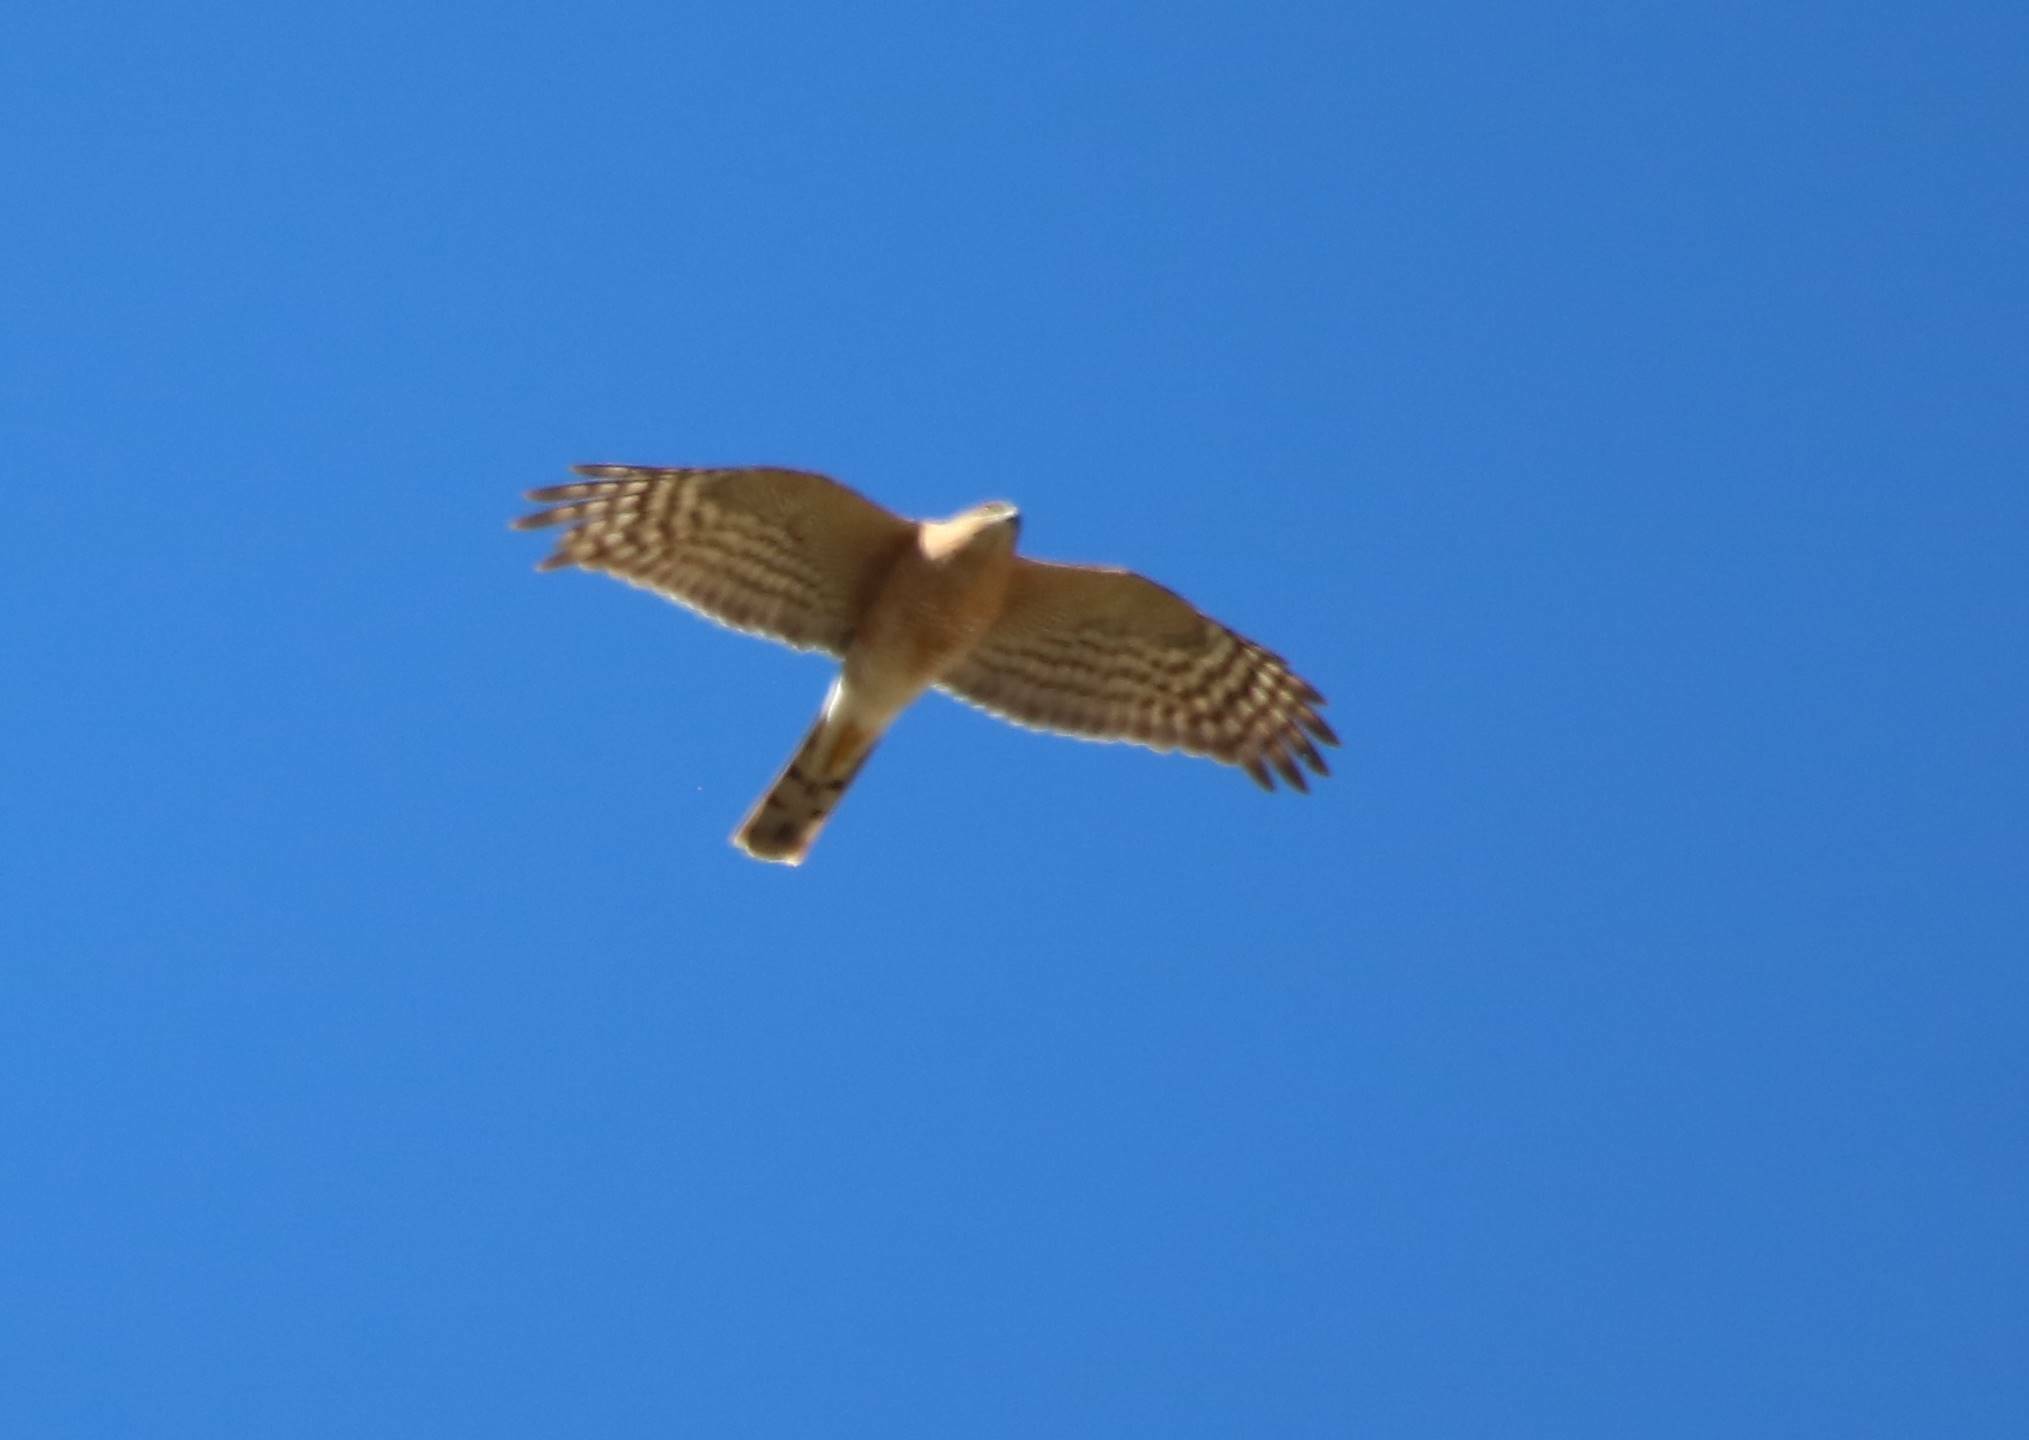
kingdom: Animalia
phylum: Chordata
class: Aves
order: Accipitriformes
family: Accipitridae
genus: Accipiter
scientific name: Accipiter nisus
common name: Eurasian sparrowhawk
